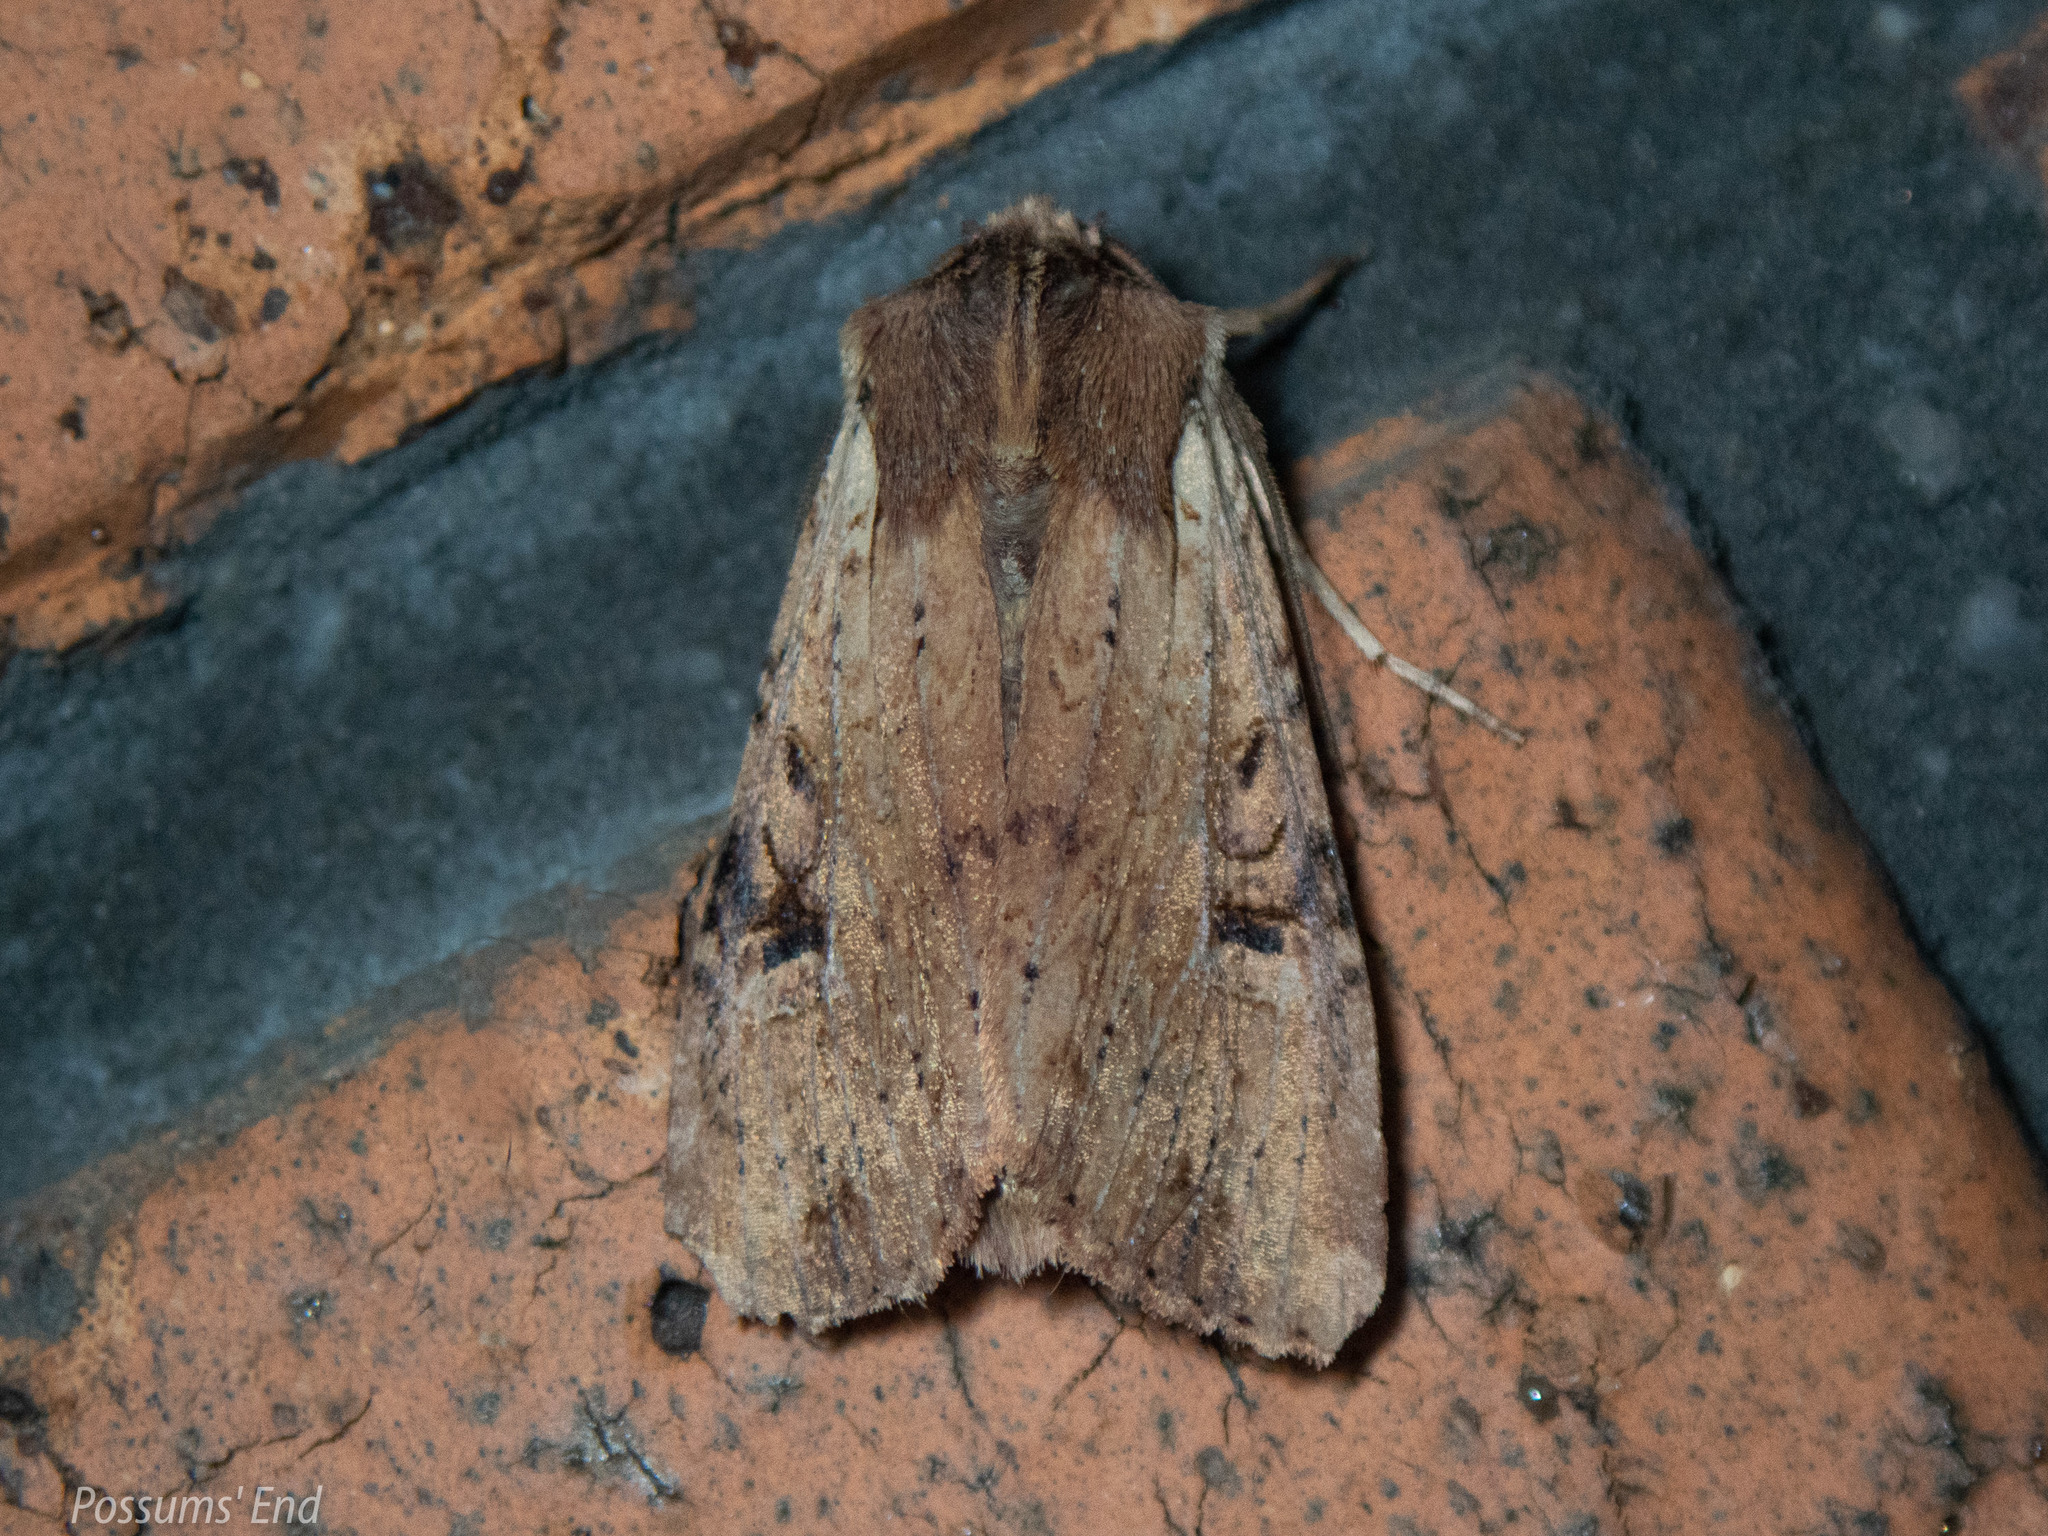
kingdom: Animalia
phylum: Arthropoda
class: Insecta
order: Lepidoptera
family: Noctuidae
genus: Ichneutica
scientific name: Ichneutica omoplaca
